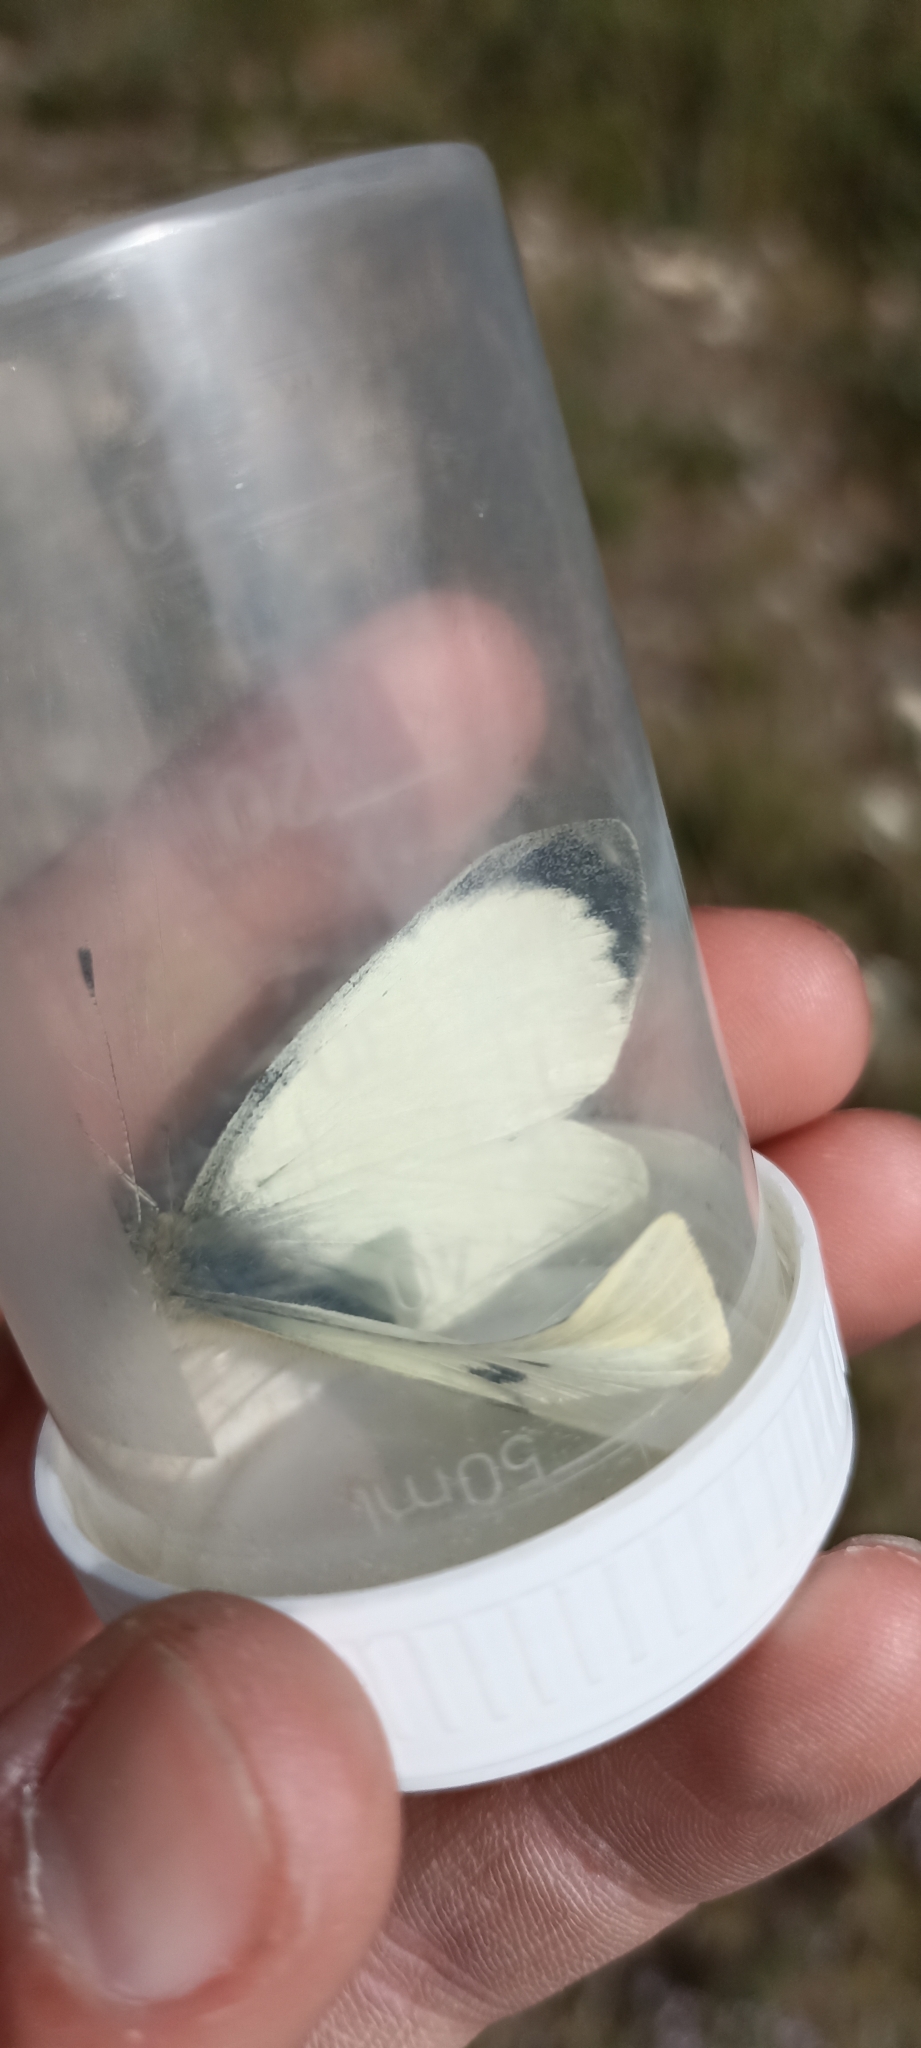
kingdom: Animalia
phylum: Arthropoda
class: Insecta
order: Lepidoptera
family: Pieridae
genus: Pieris
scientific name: Pieris brassicae
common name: Large white
